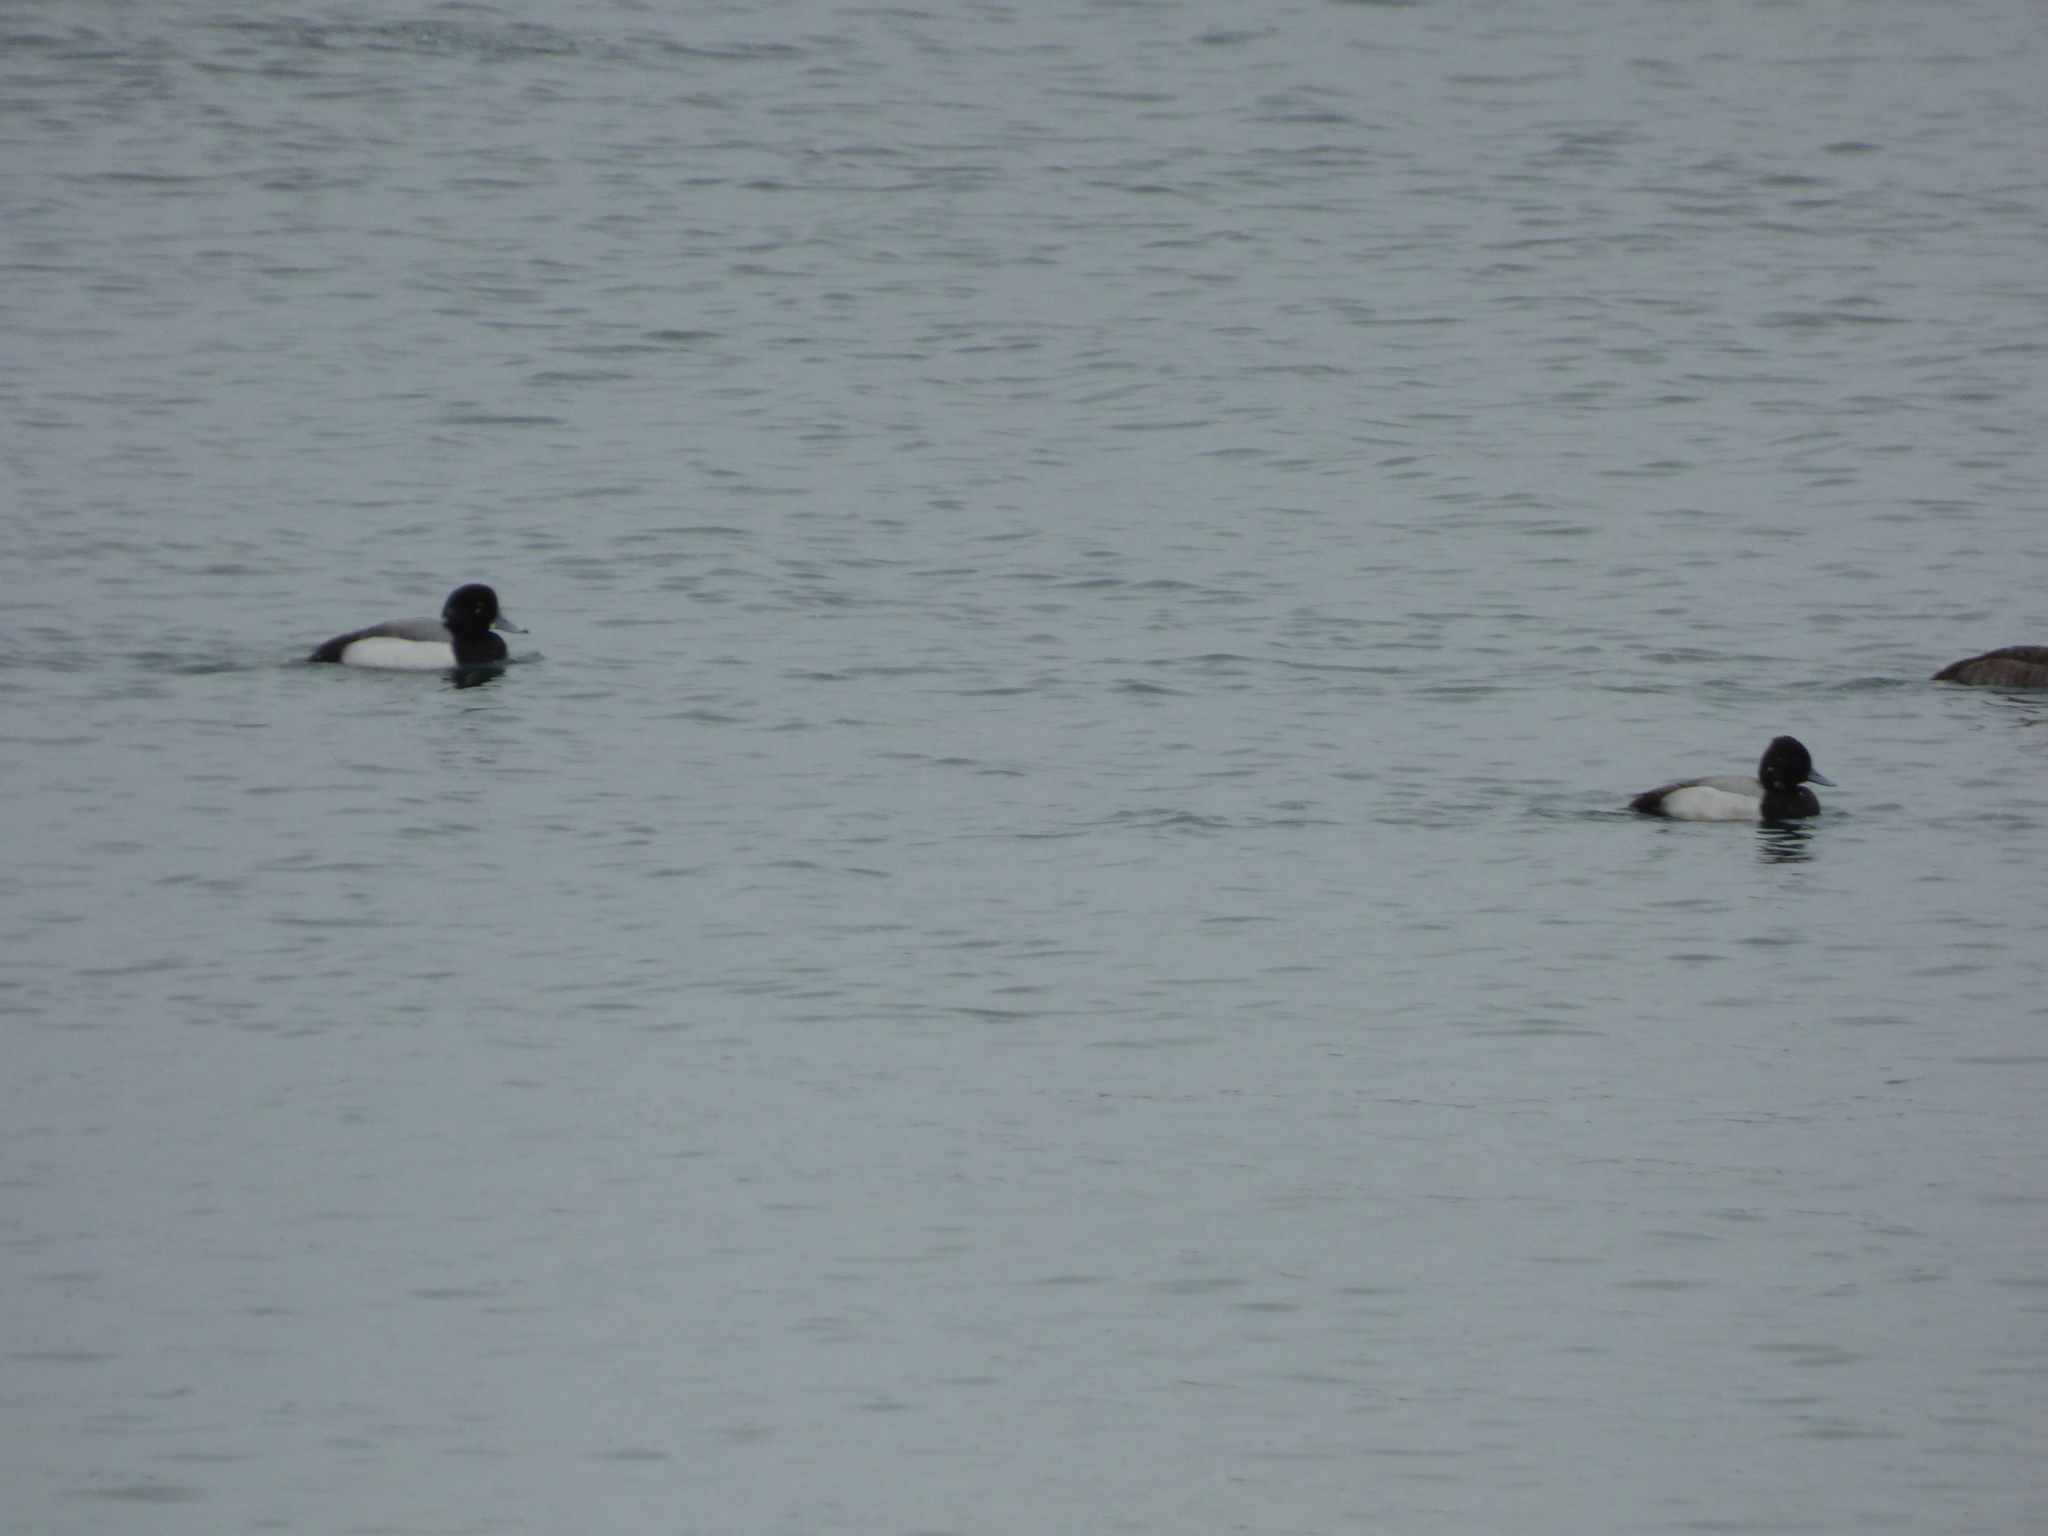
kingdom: Animalia
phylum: Chordata
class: Aves
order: Anseriformes
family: Anatidae
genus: Aythya
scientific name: Aythya affinis
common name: Lesser scaup
